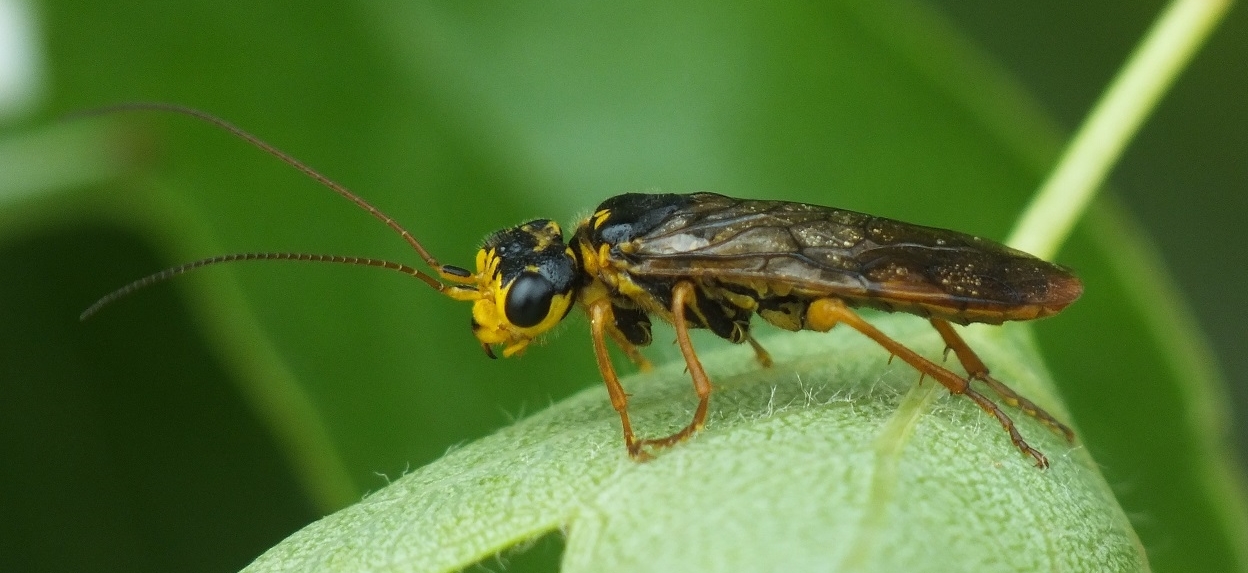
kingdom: Animalia
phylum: Arthropoda
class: Insecta
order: Hymenoptera
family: Pamphiliidae
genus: Acantholyda
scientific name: Acantholyda posticalis
